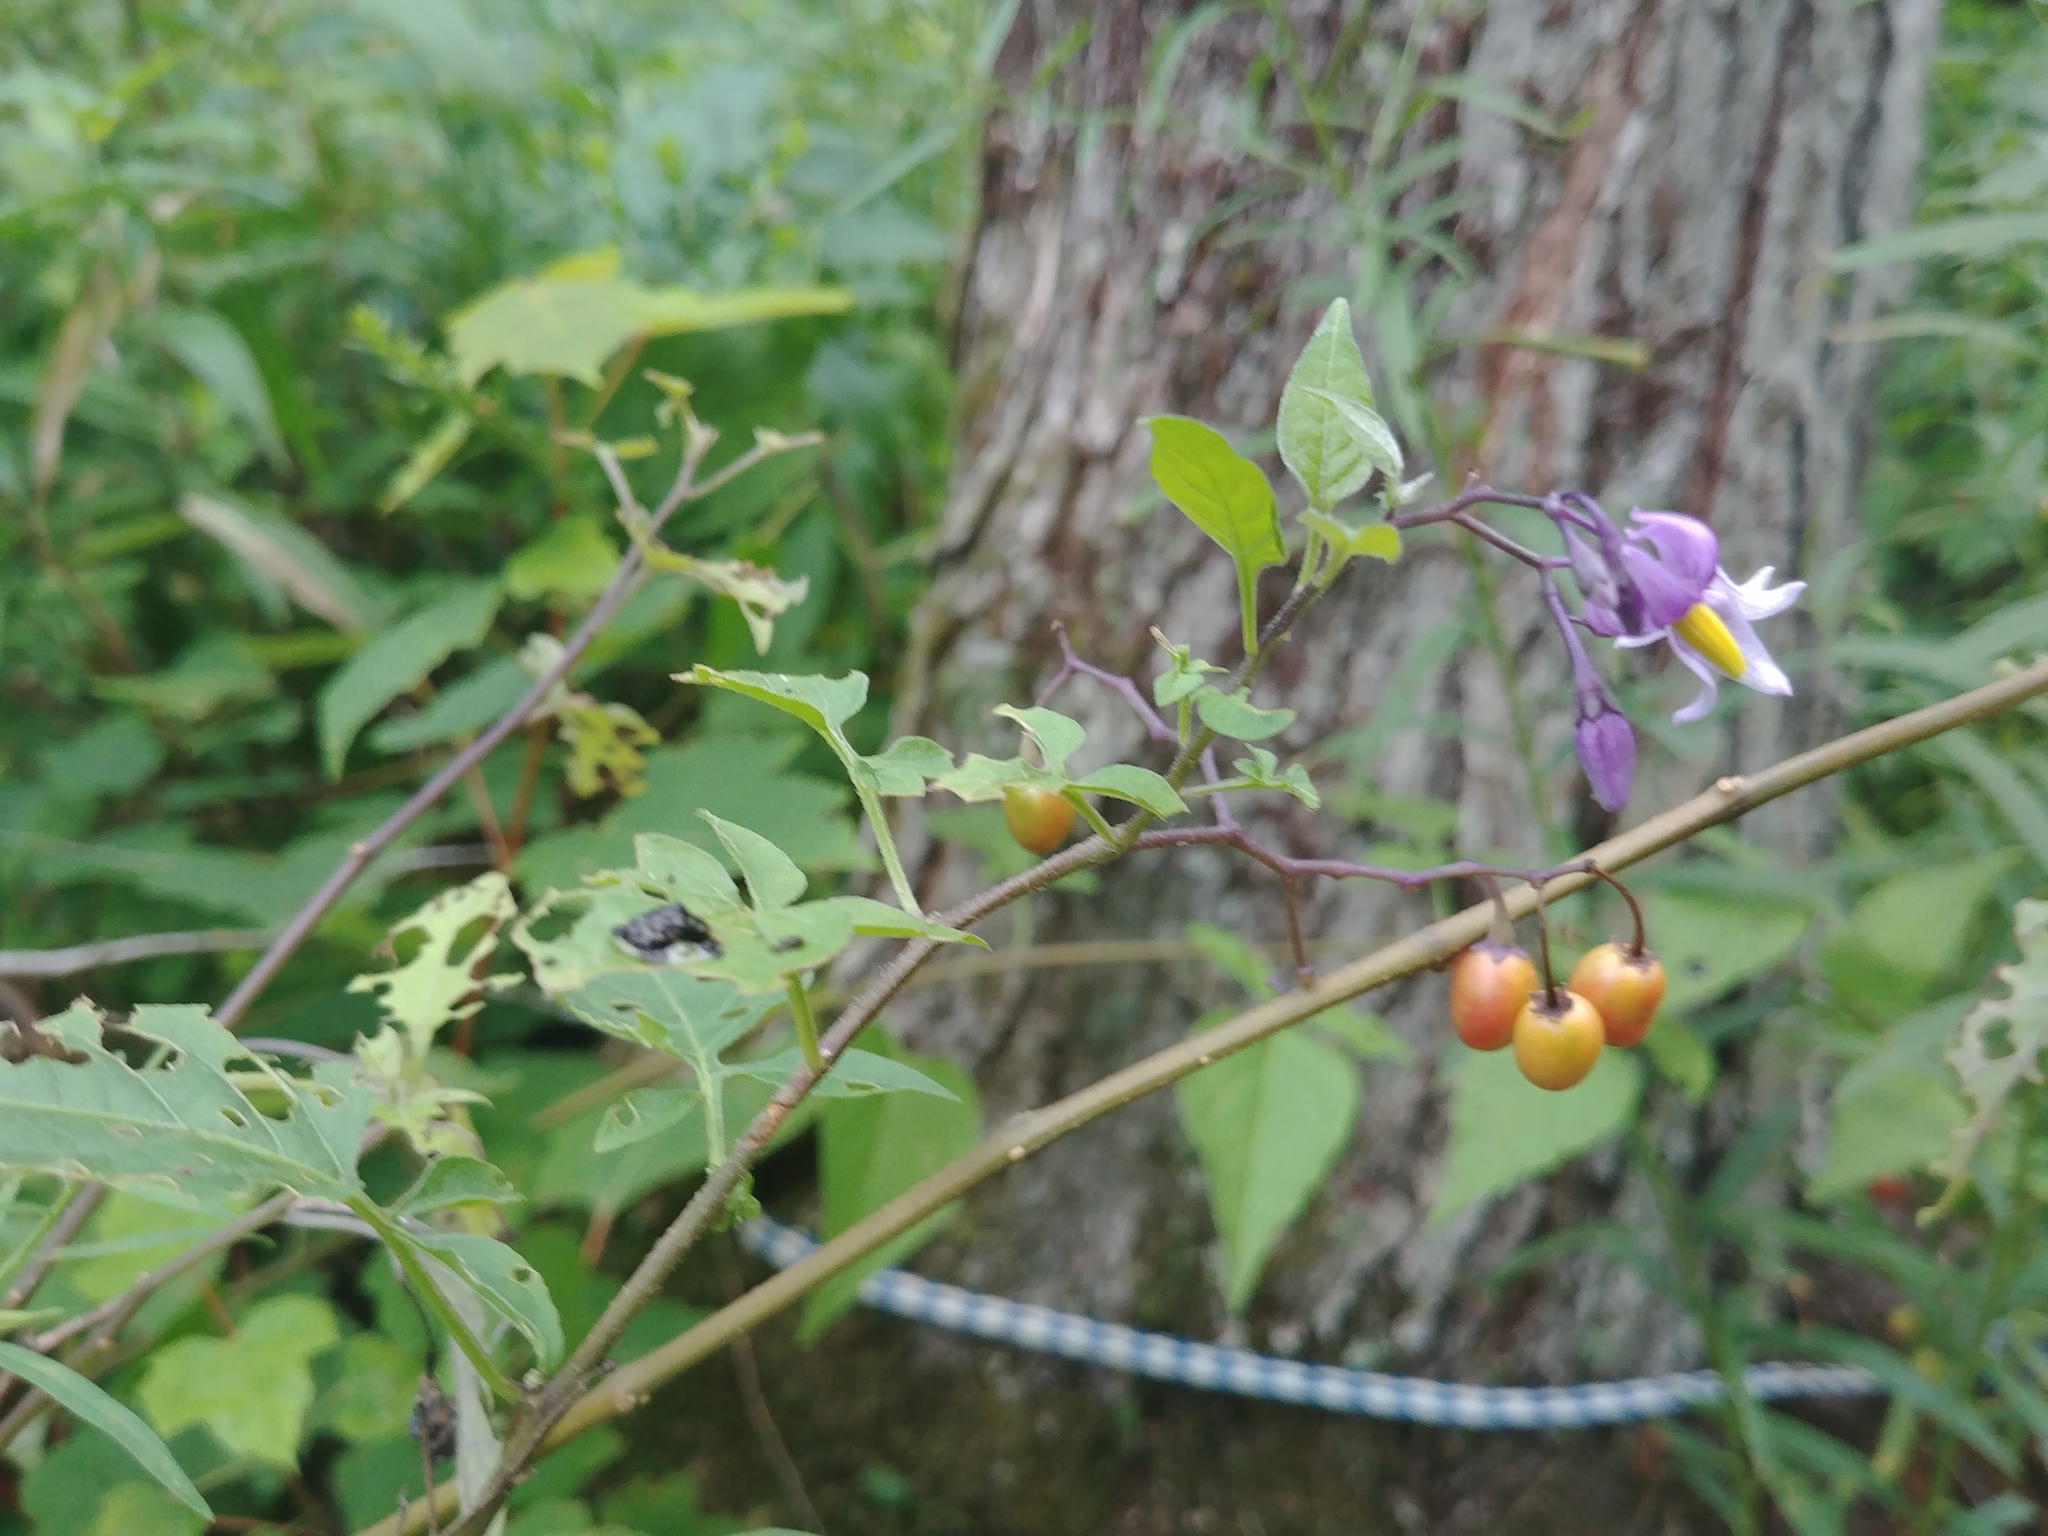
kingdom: Plantae
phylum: Tracheophyta
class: Magnoliopsida
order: Solanales
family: Solanaceae
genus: Solanum
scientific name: Solanum dulcamara
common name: Climbing nightshade
